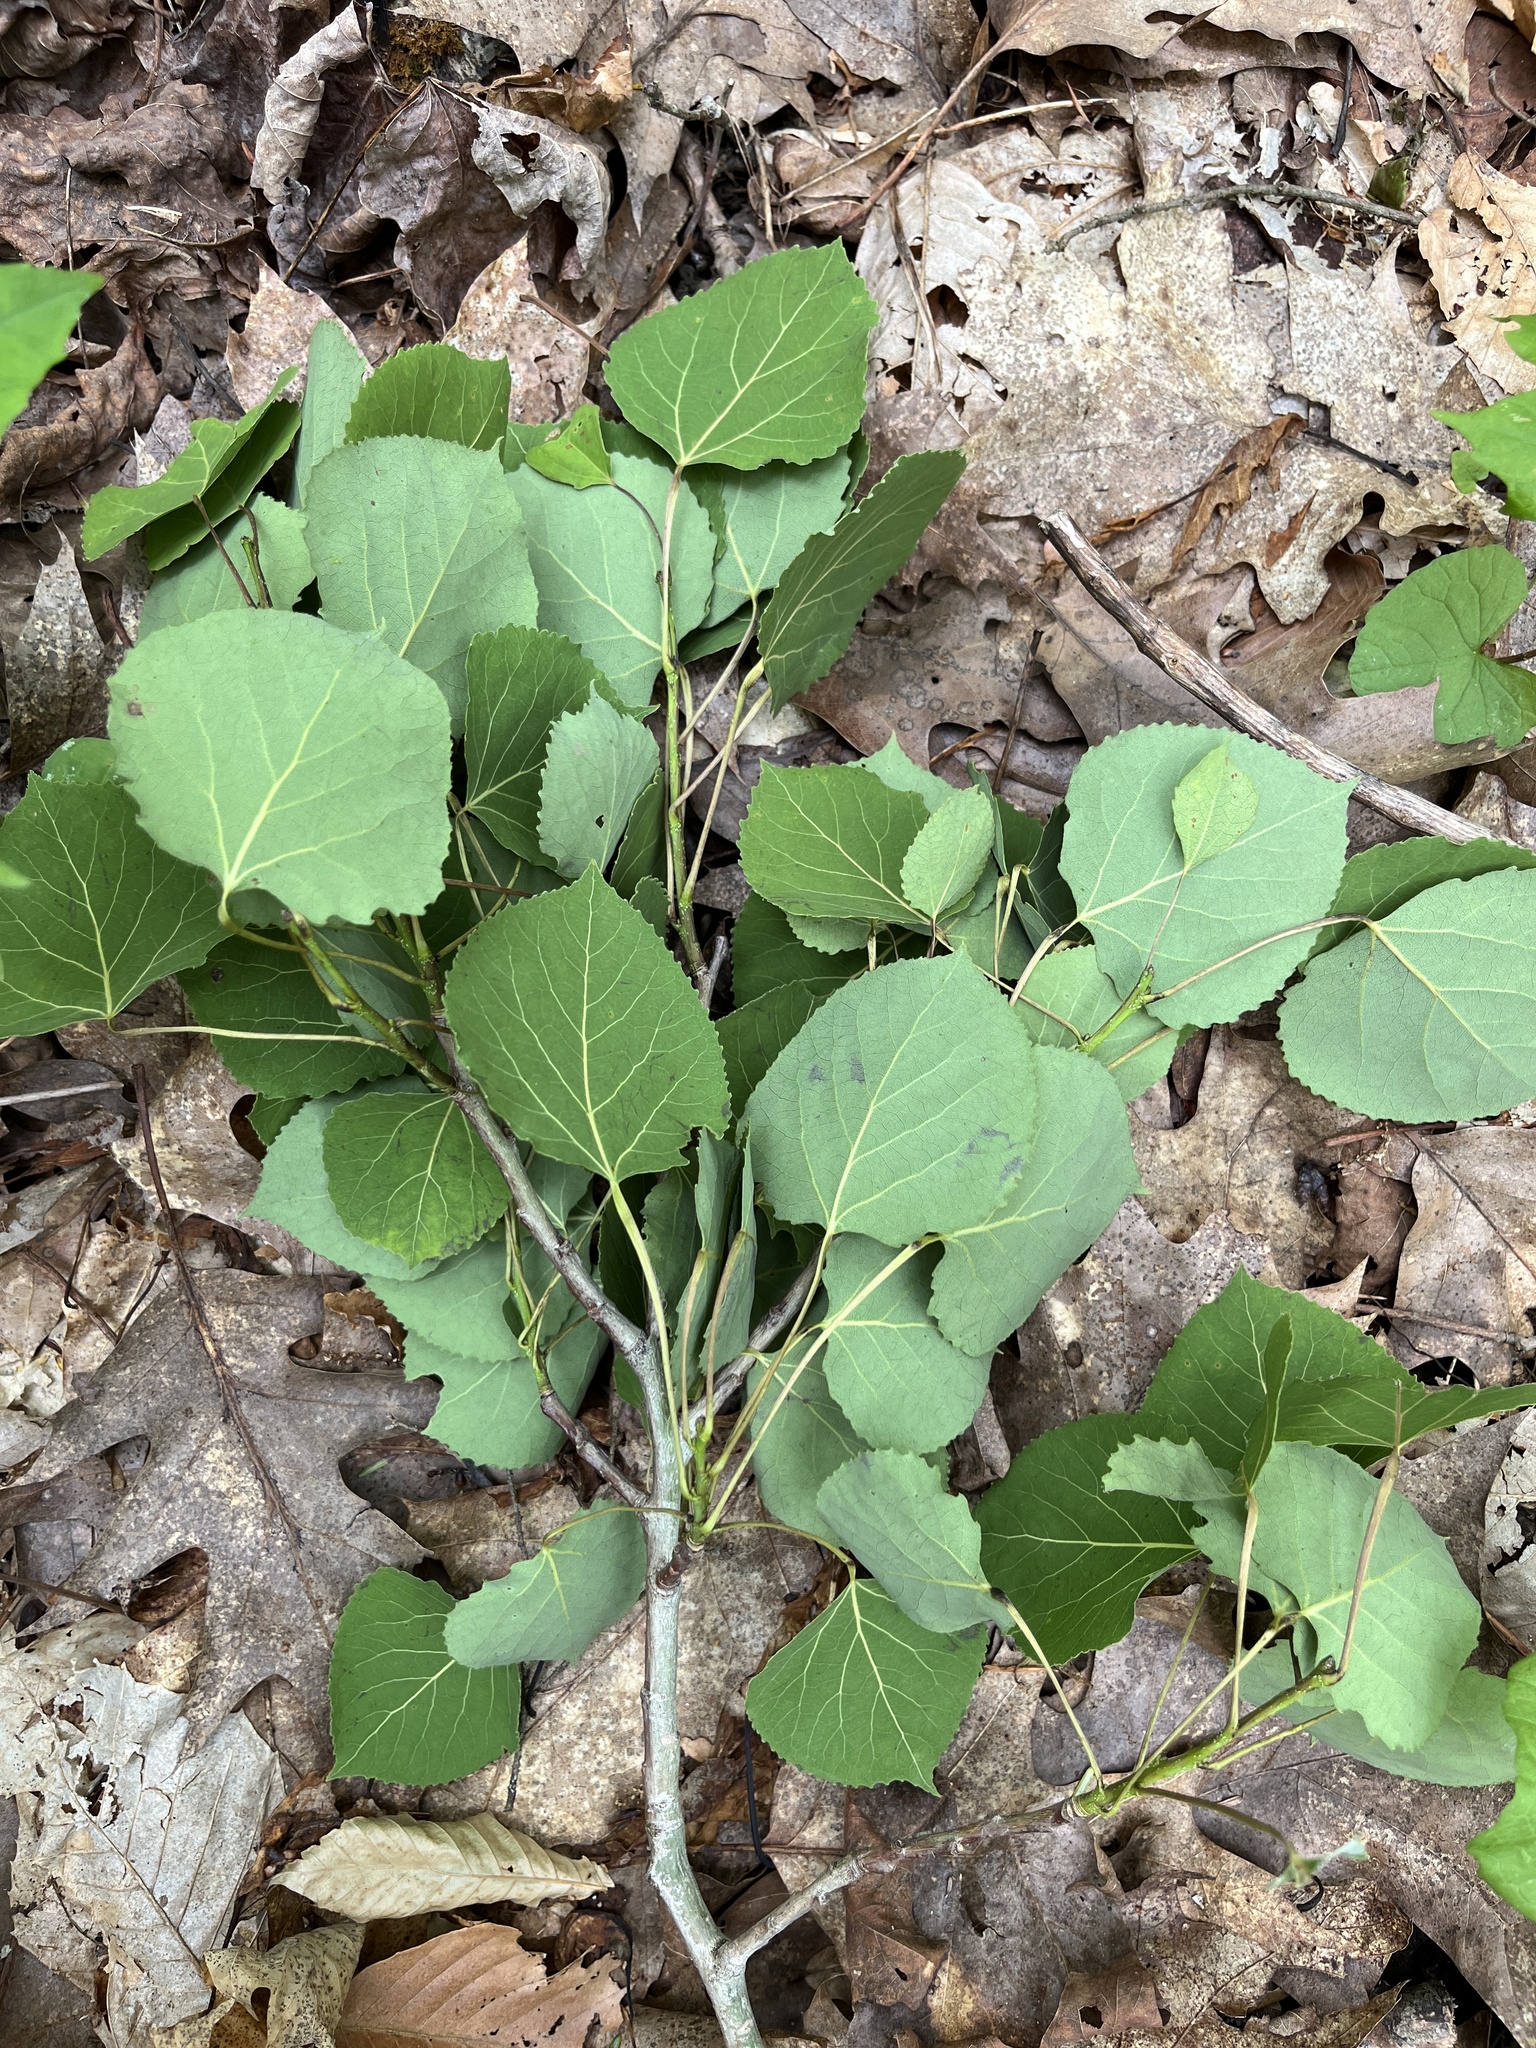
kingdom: Plantae
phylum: Tracheophyta
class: Magnoliopsida
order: Malpighiales
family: Salicaceae
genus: Populus
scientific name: Populus tremuloides
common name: Quaking aspen
